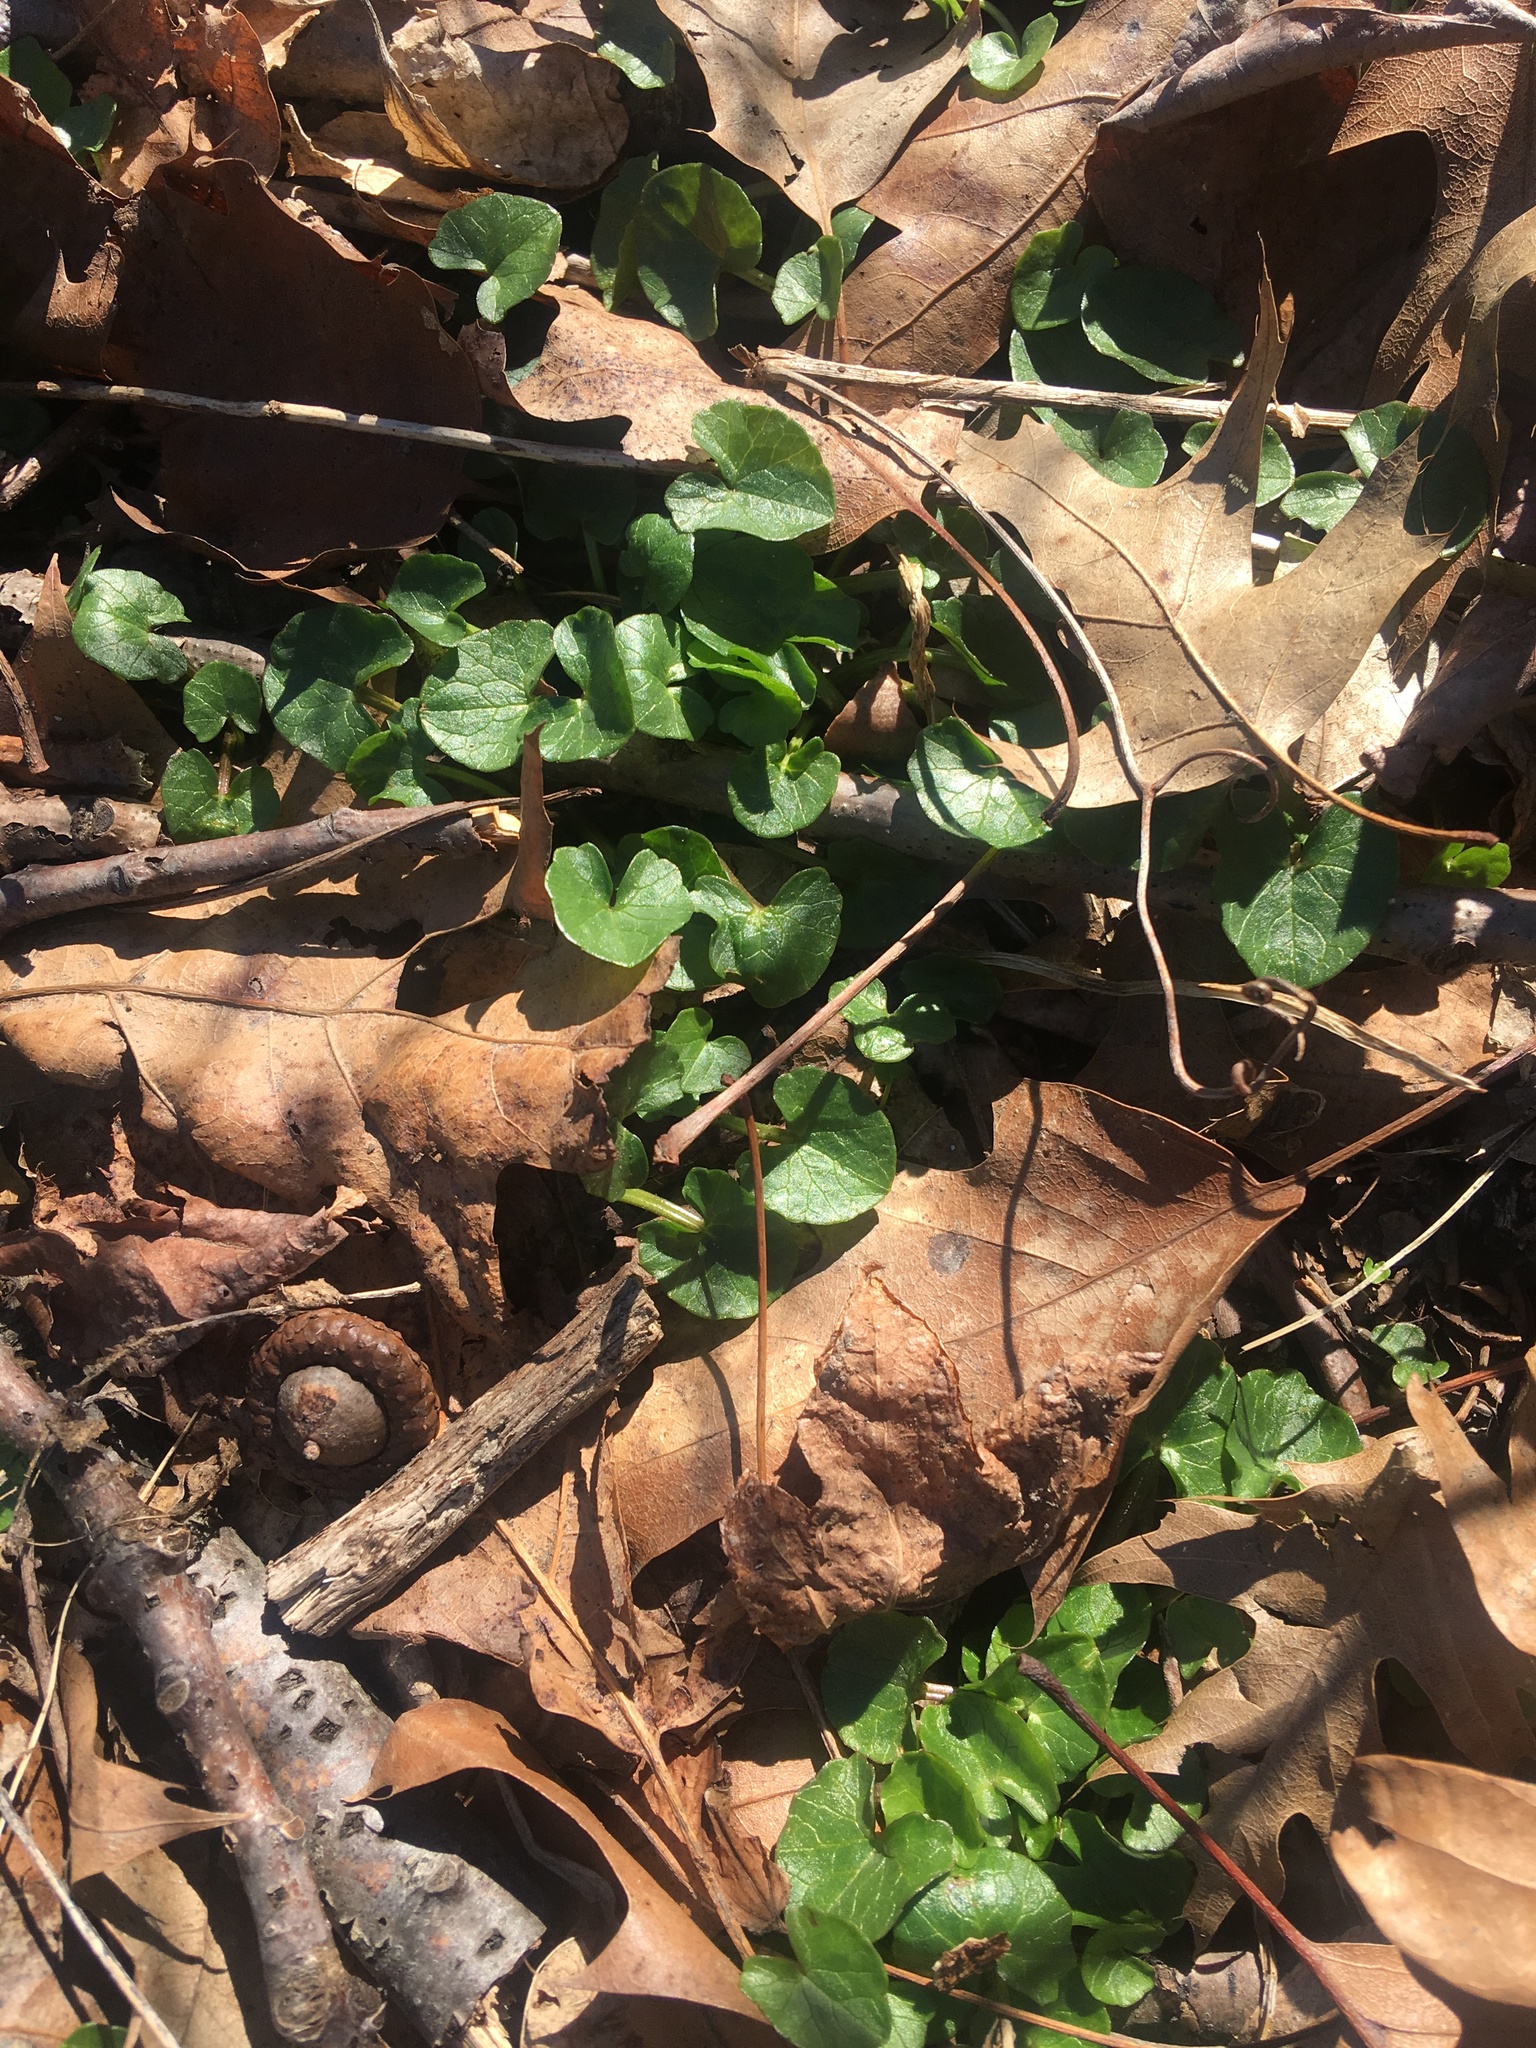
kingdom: Plantae
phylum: Tracheophyta
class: Magnoliopsida
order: Ranunculales
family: Ranunculaceae
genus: Ficaria
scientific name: Ficaria verna
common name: Lesser celandine
